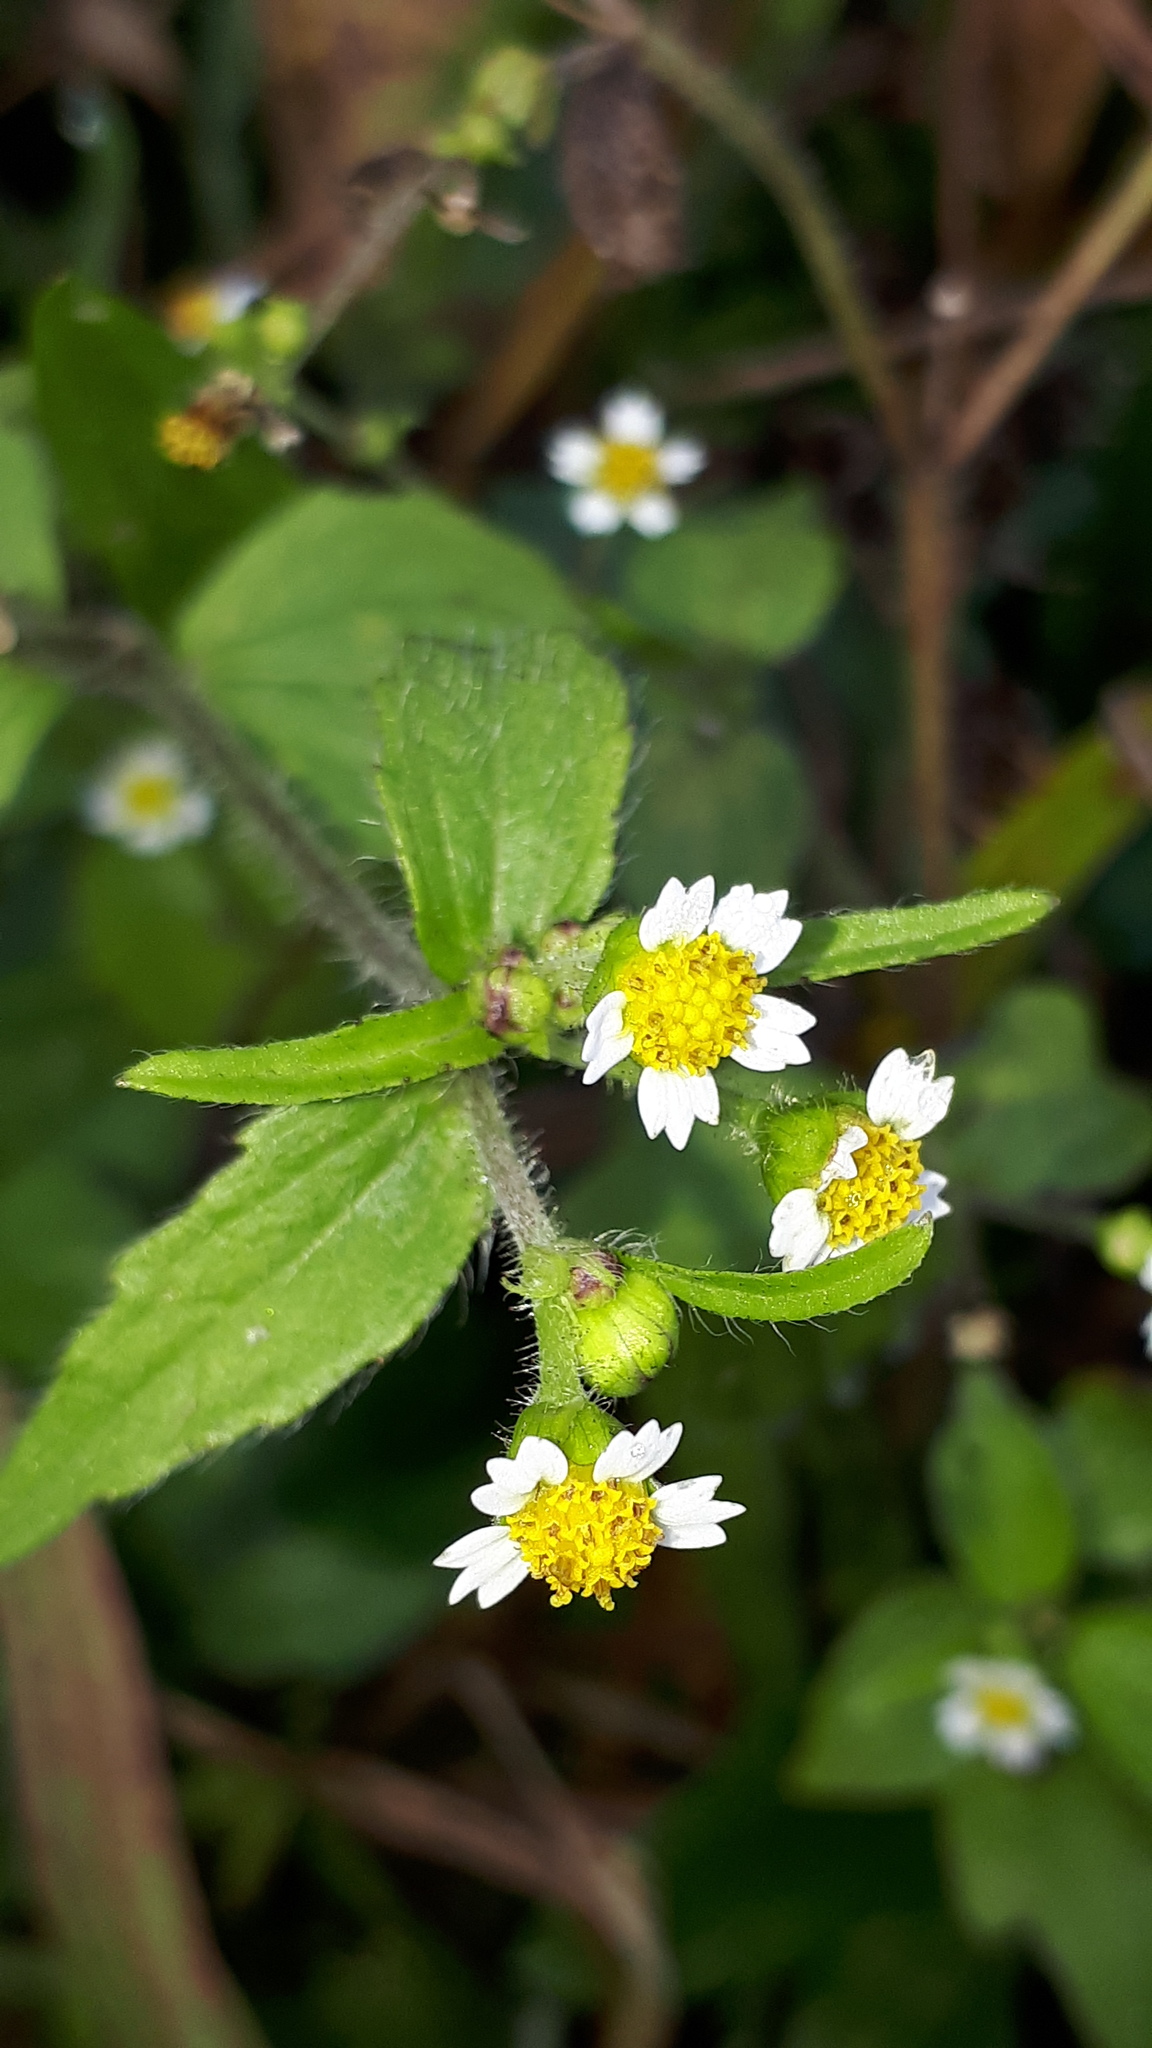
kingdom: Plantae
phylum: Tracheophyta
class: Magnoliopsida
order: Asterales
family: Asteraceae
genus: Galinsoga
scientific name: Galinsoga quadriradiata
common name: Shaggy soldier
